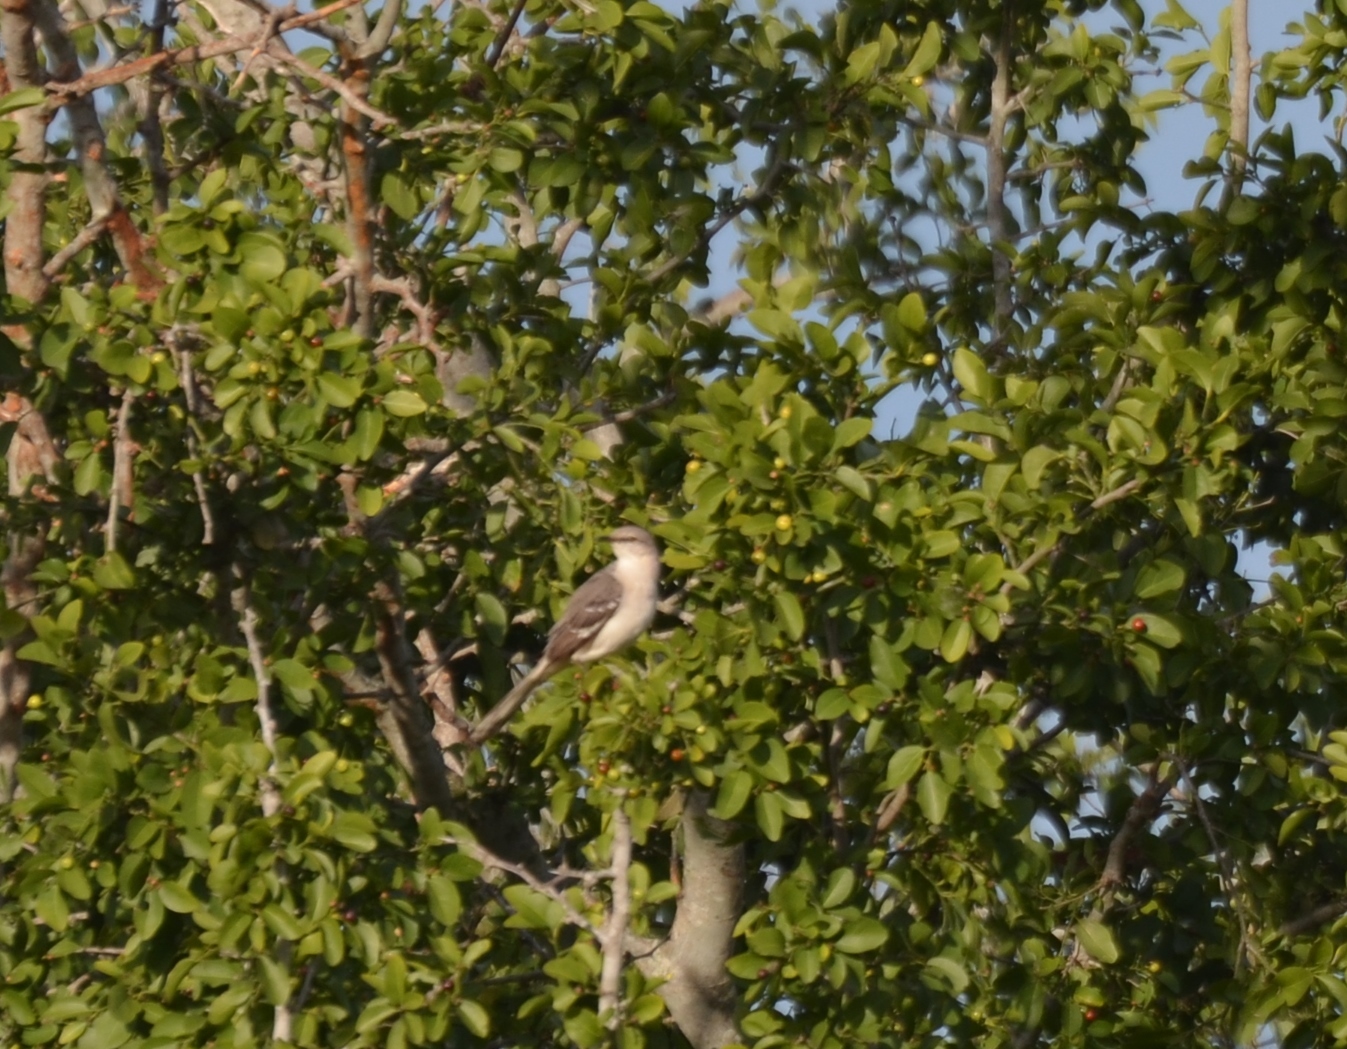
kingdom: Animalia
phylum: Chordata
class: Aves
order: Passeriformes
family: Mimidae
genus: Mimus
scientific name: Mimus polyglottos
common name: Northern mockingbird
